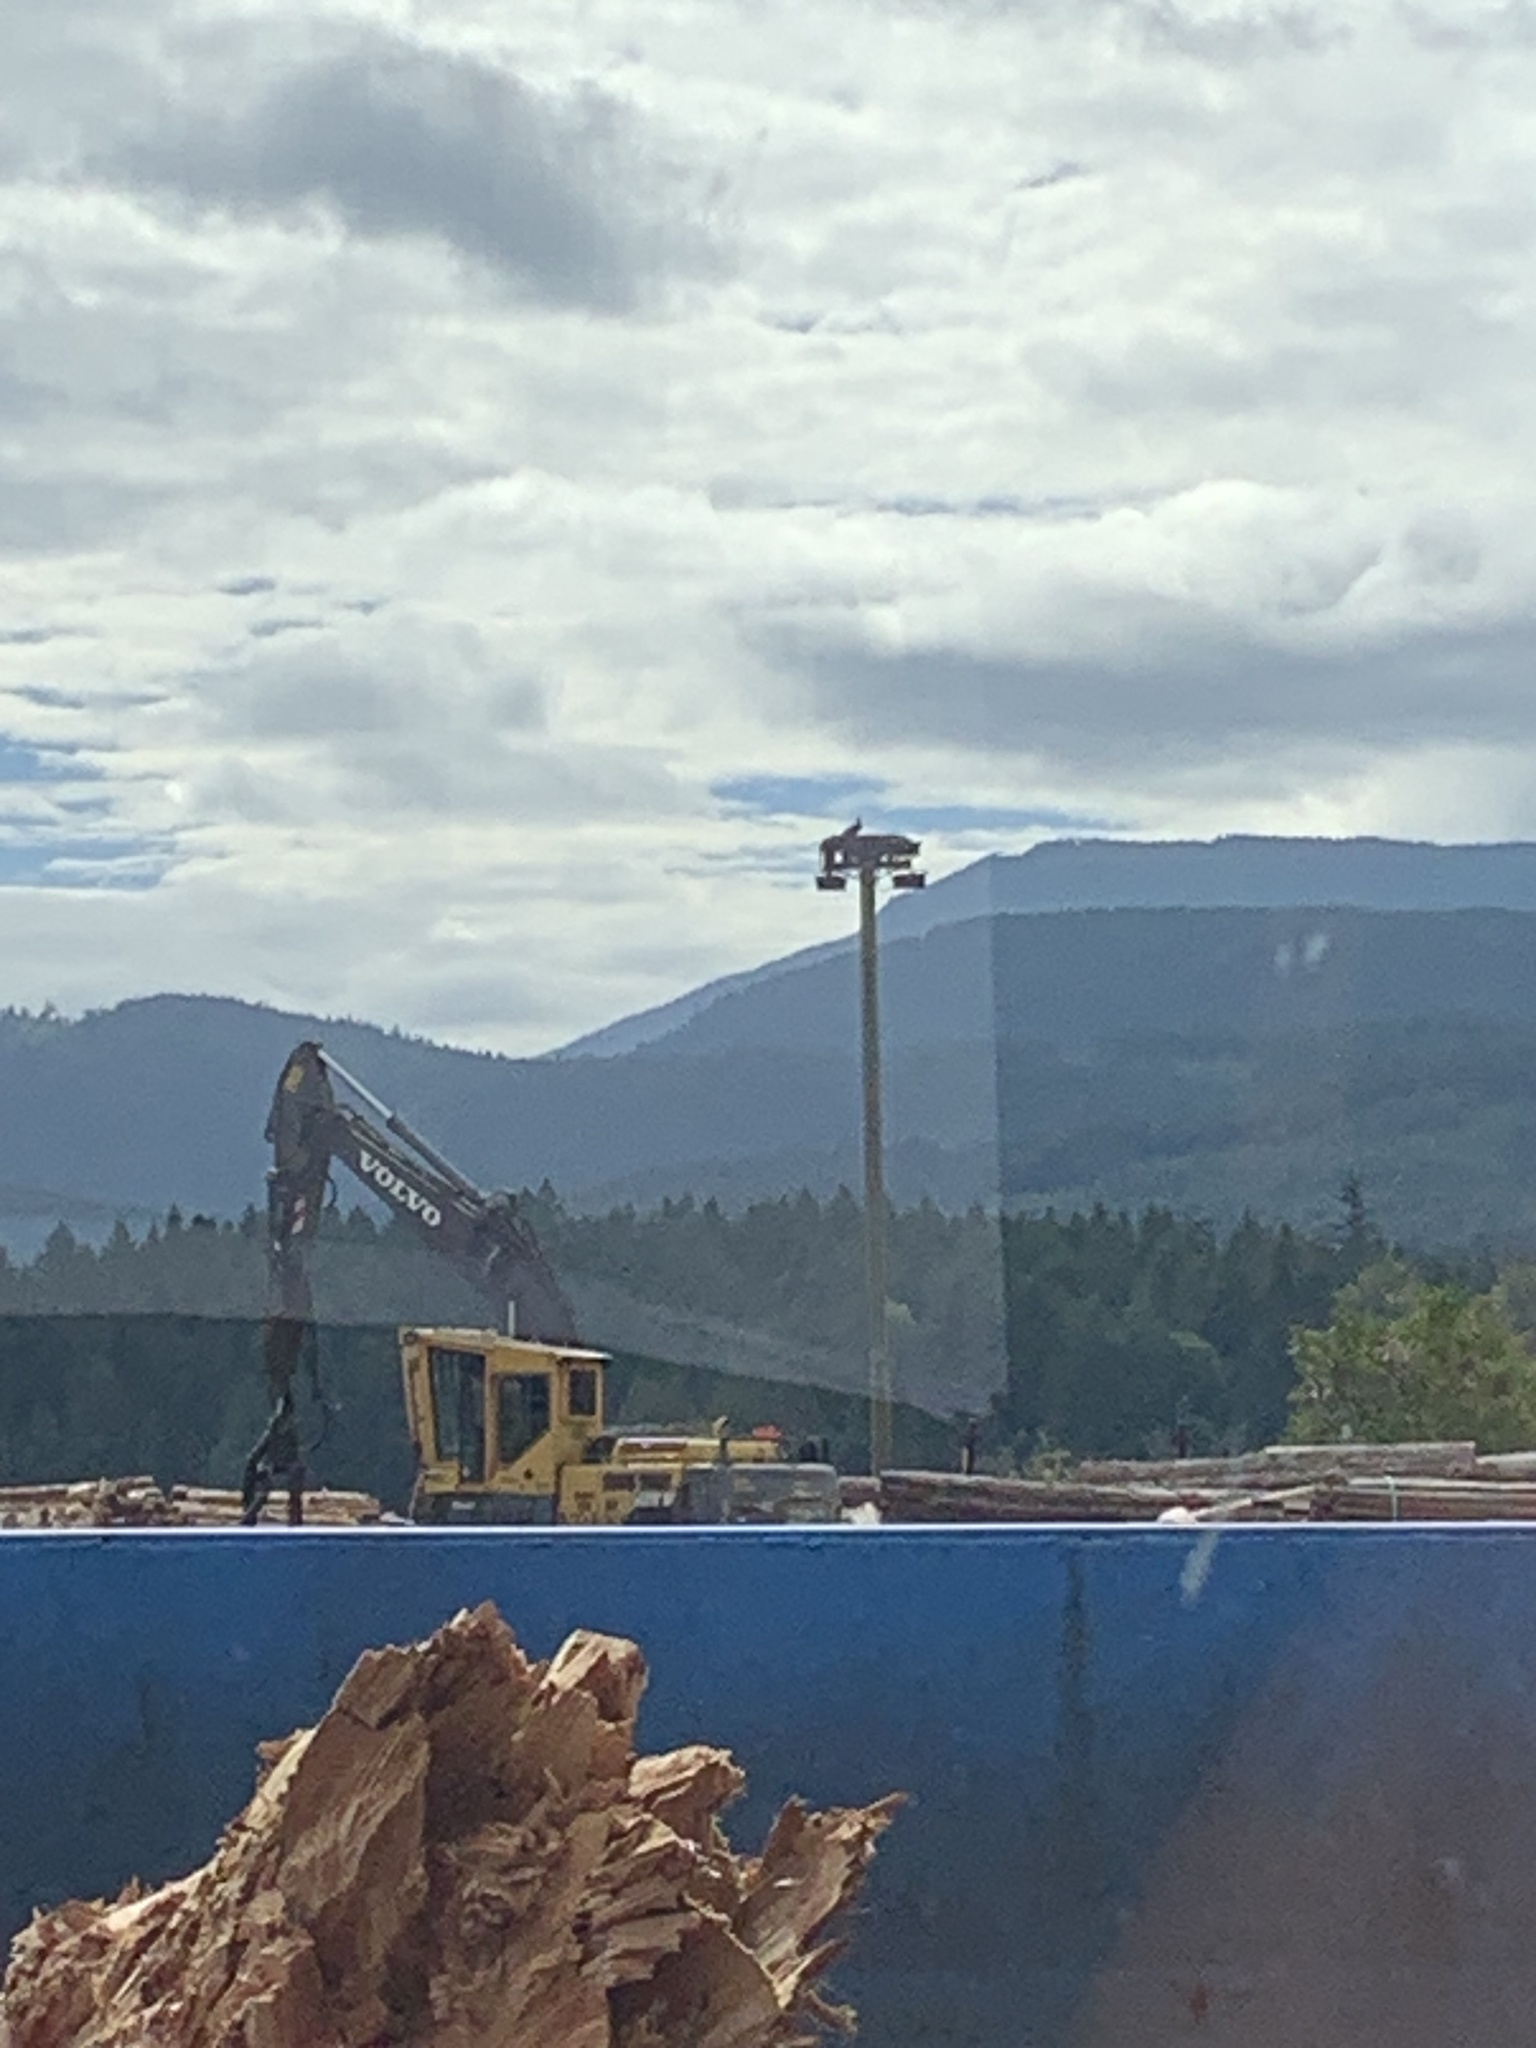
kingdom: Animalia
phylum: Chordata
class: Aves
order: Accipitriformes
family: Pandionidae
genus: Pandion
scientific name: Pandion haliaetus
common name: Osprey
